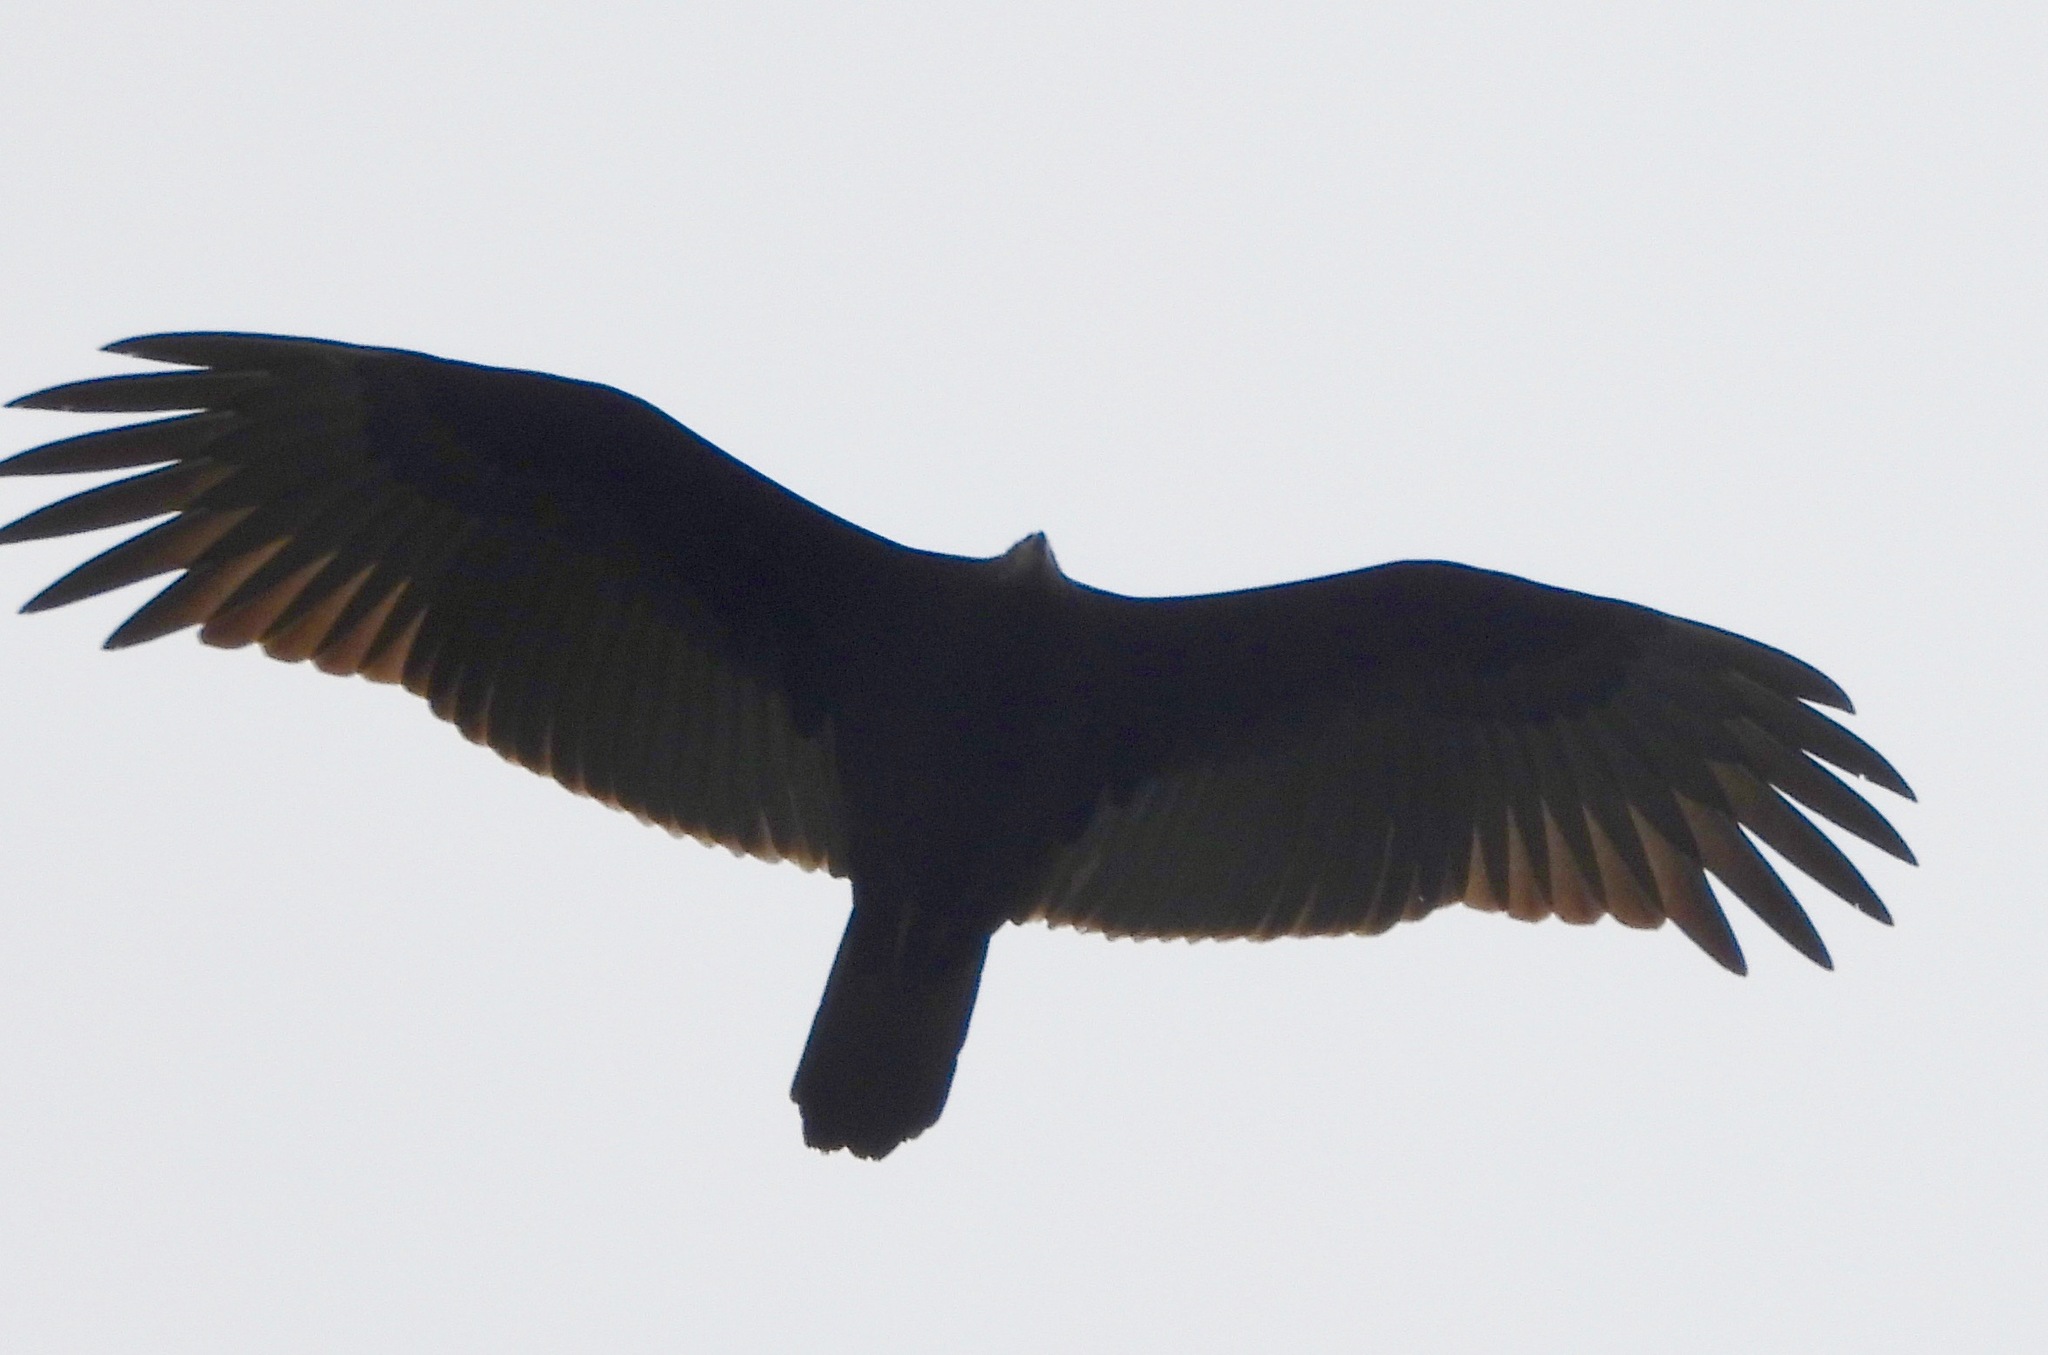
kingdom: Animalia
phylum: Chordata
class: Aves
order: Accipitriformes
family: Cathartidae
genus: Cathartes
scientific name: Cathartes aura
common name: Turkey vulture
